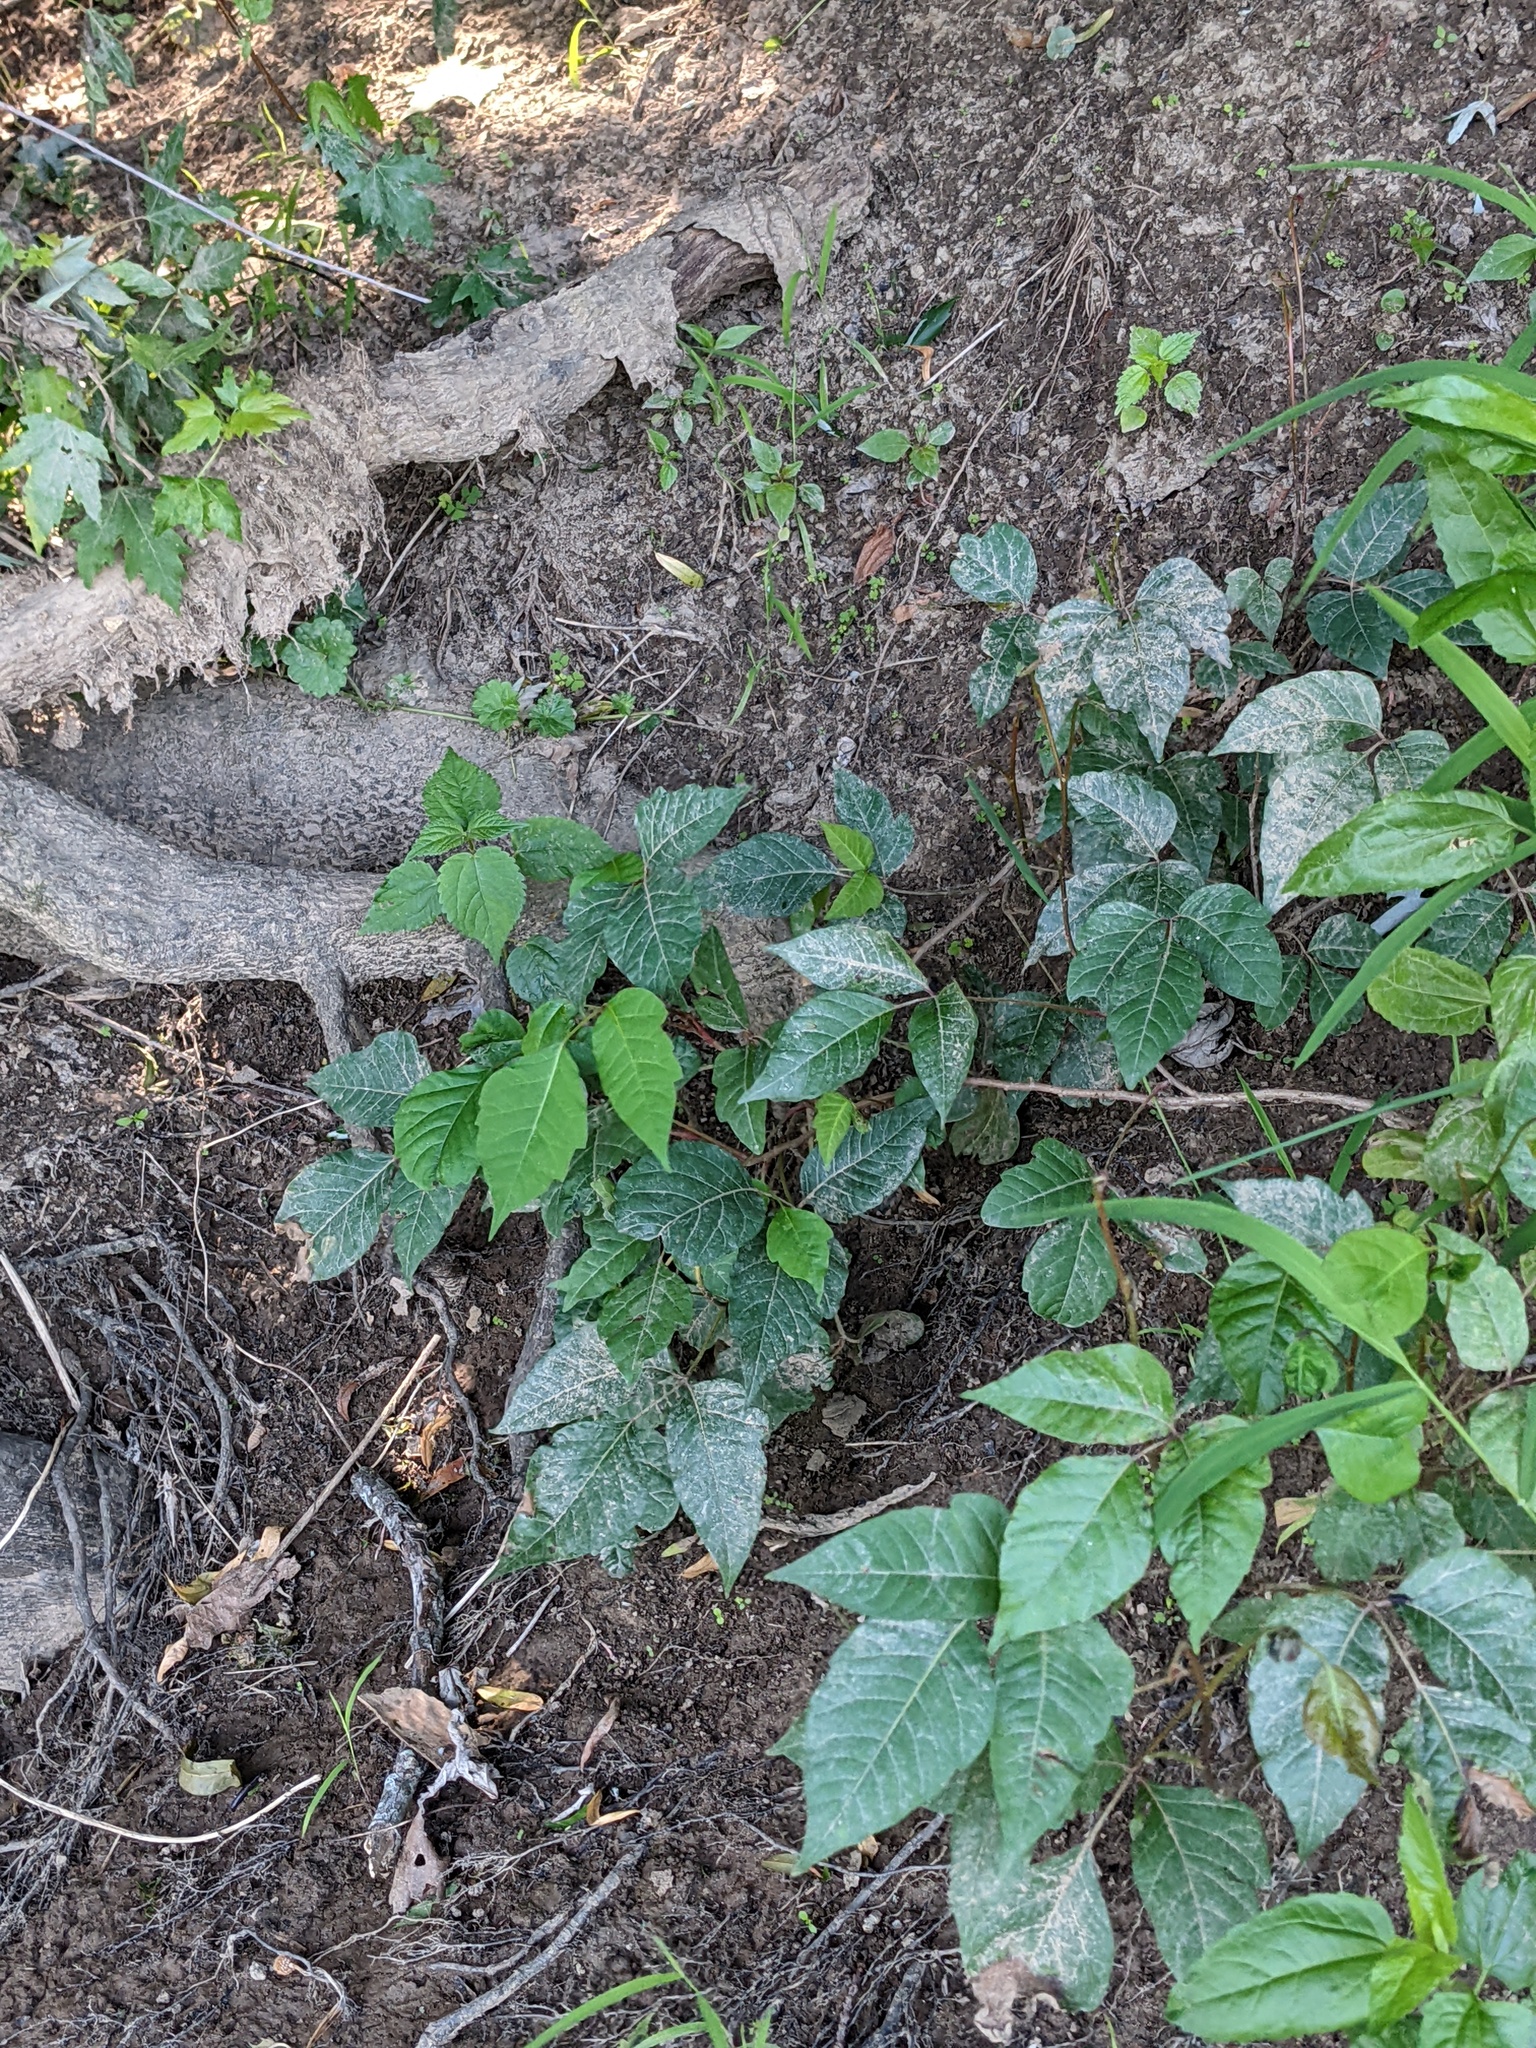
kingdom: Plantae
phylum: Tracheophyta
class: Magnoliopsida
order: Sapindales
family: Anacardiaceae
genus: Toxicodendron
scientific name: Toxicodendron radicans
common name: Poison ivy
